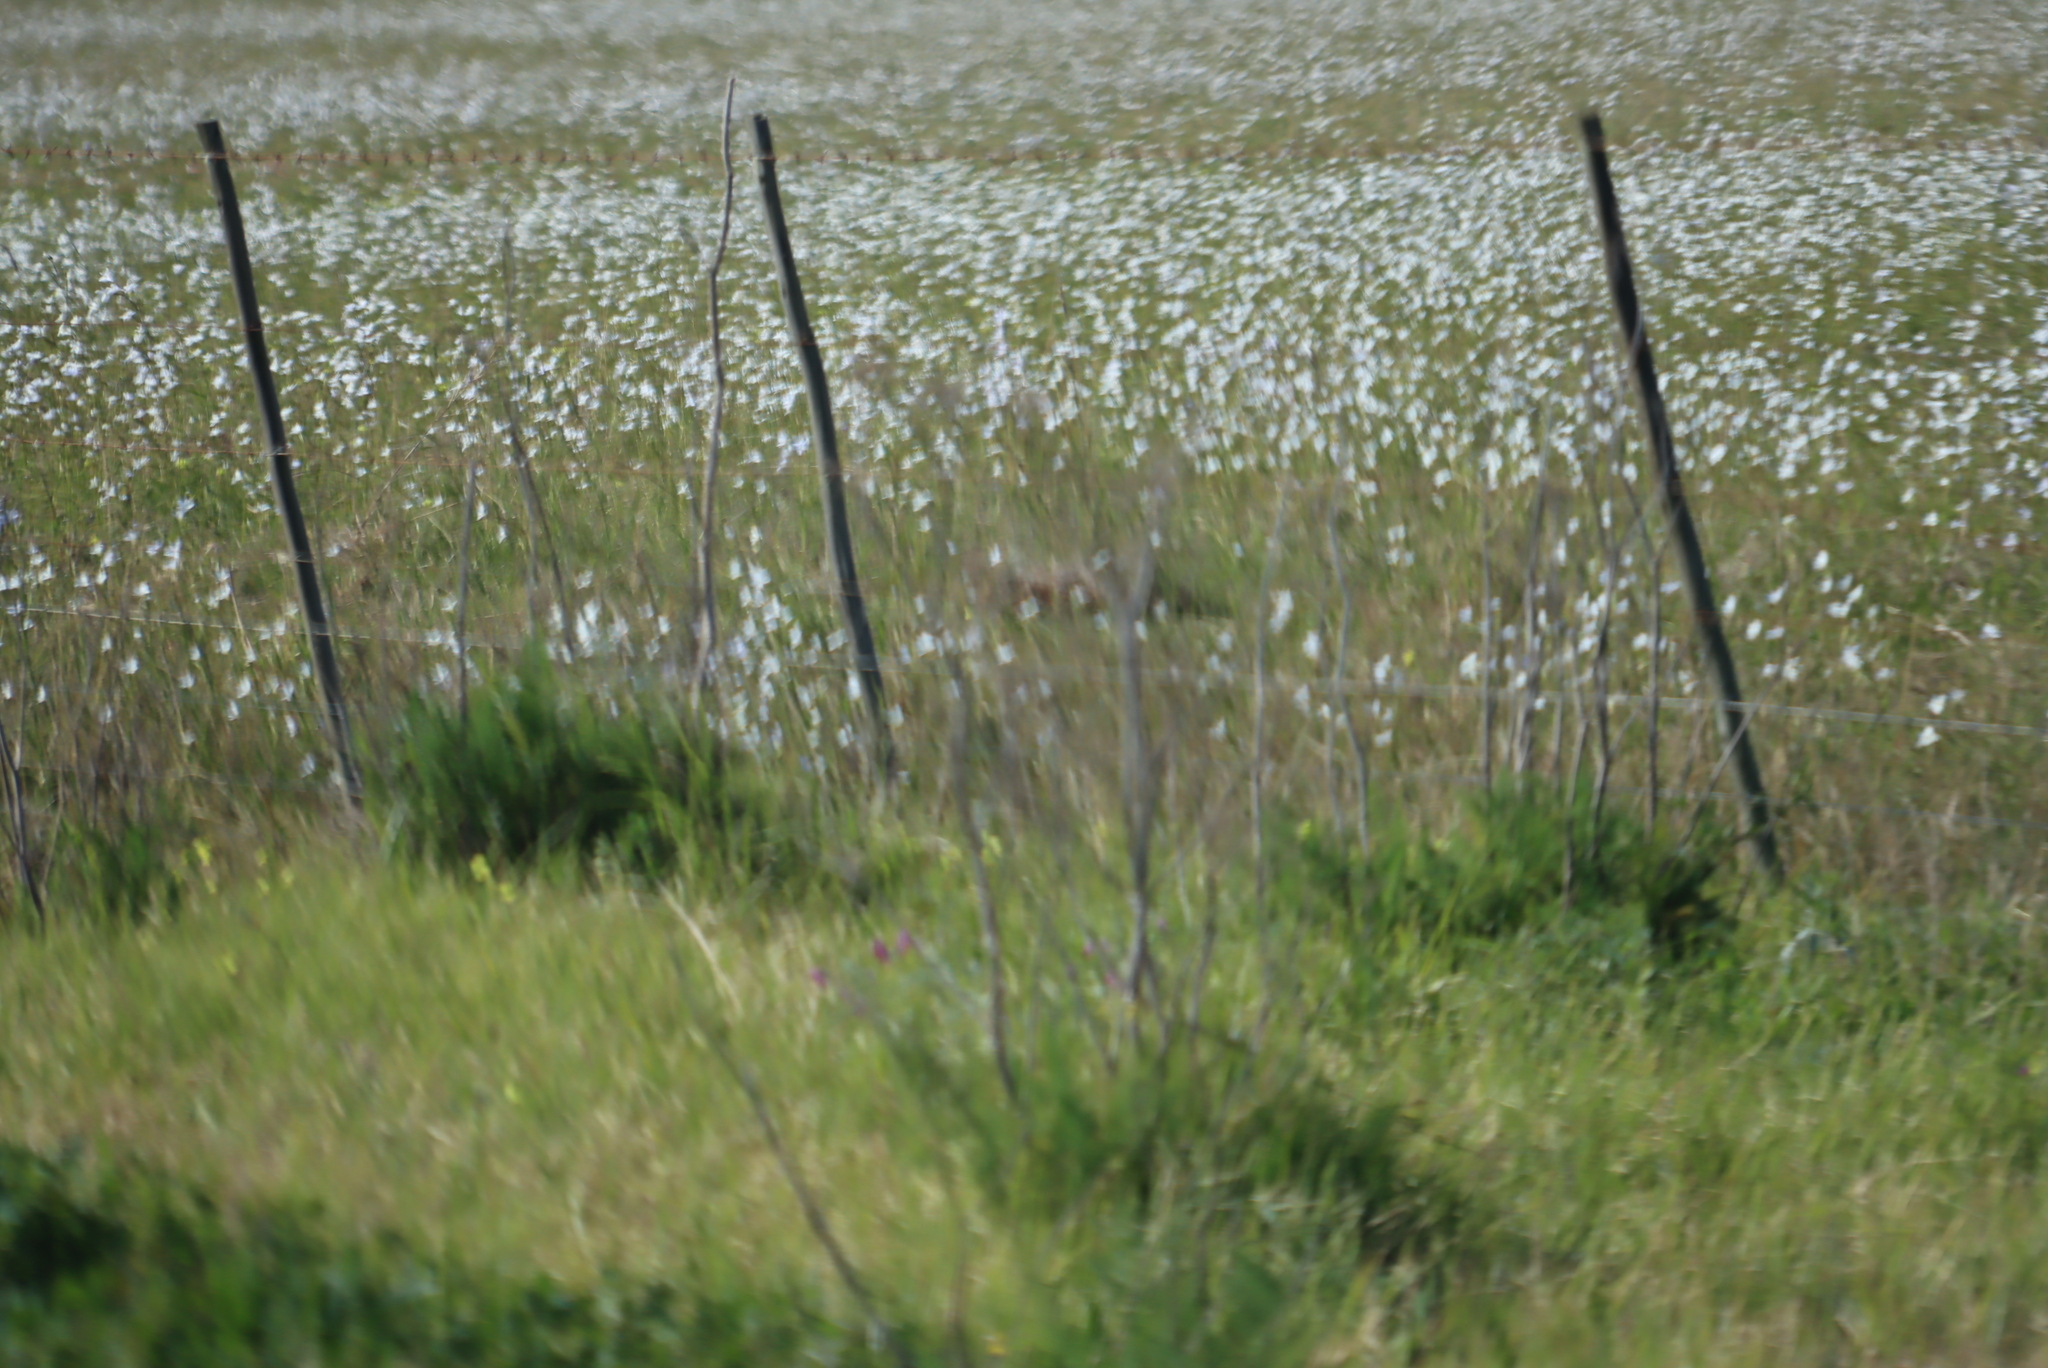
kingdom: Plantae
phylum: Tracheophyta
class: Magnoliopsida
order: Apiales
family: Apiaceae
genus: Foeniculum
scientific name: Foeniculum vulgare
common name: Fennel
